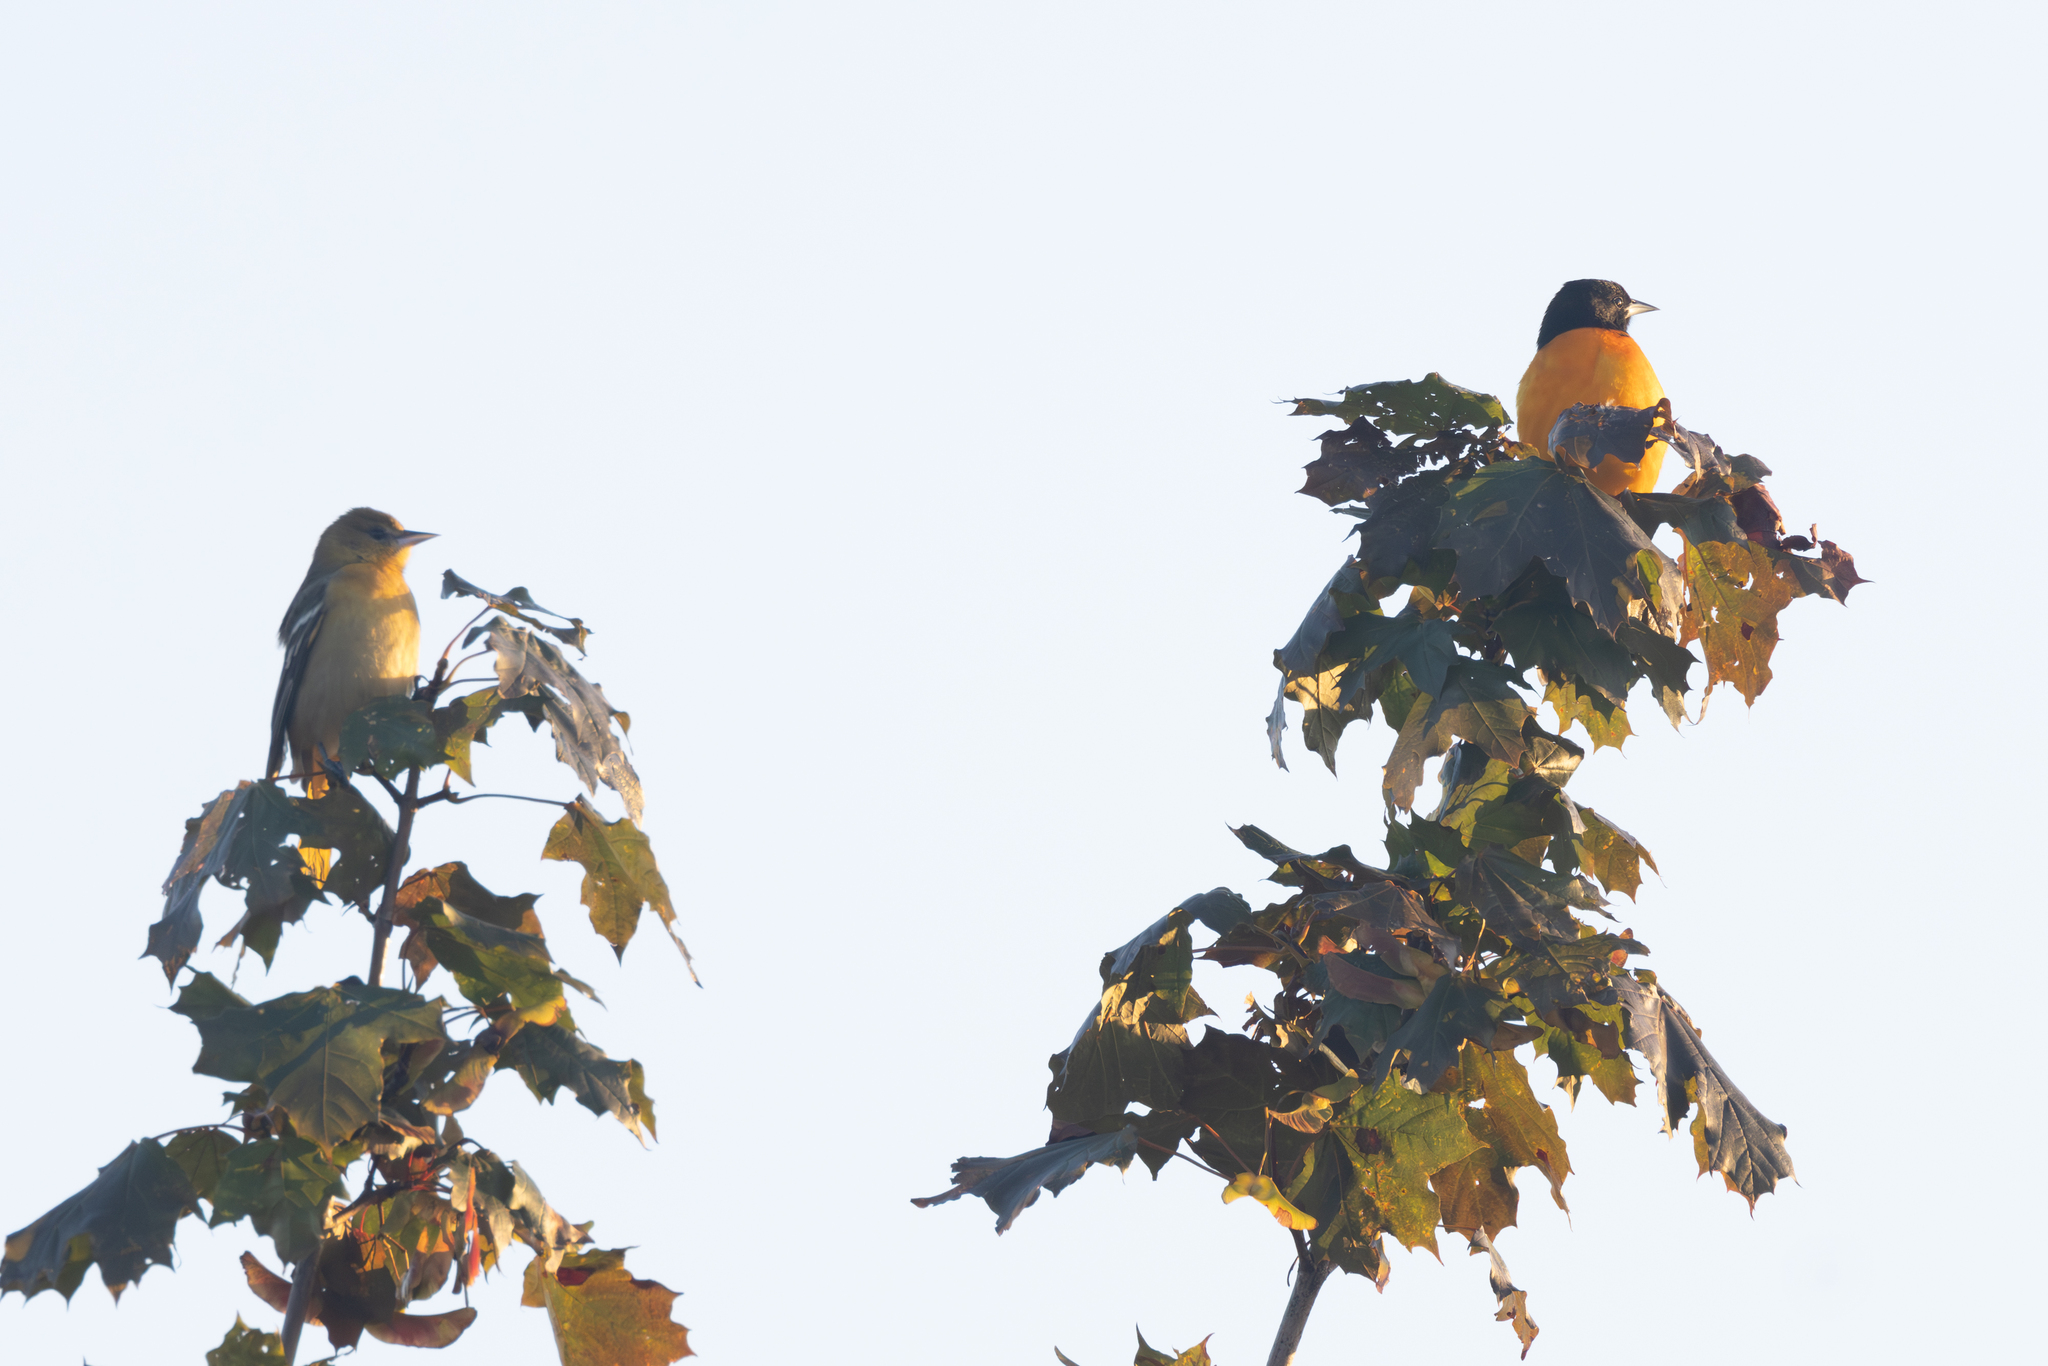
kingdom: Animalia
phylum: Chordata
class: Aves
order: Passeriformes
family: Icteridae
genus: Icterus
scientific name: Icterus galbula
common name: Baltimore oriole
